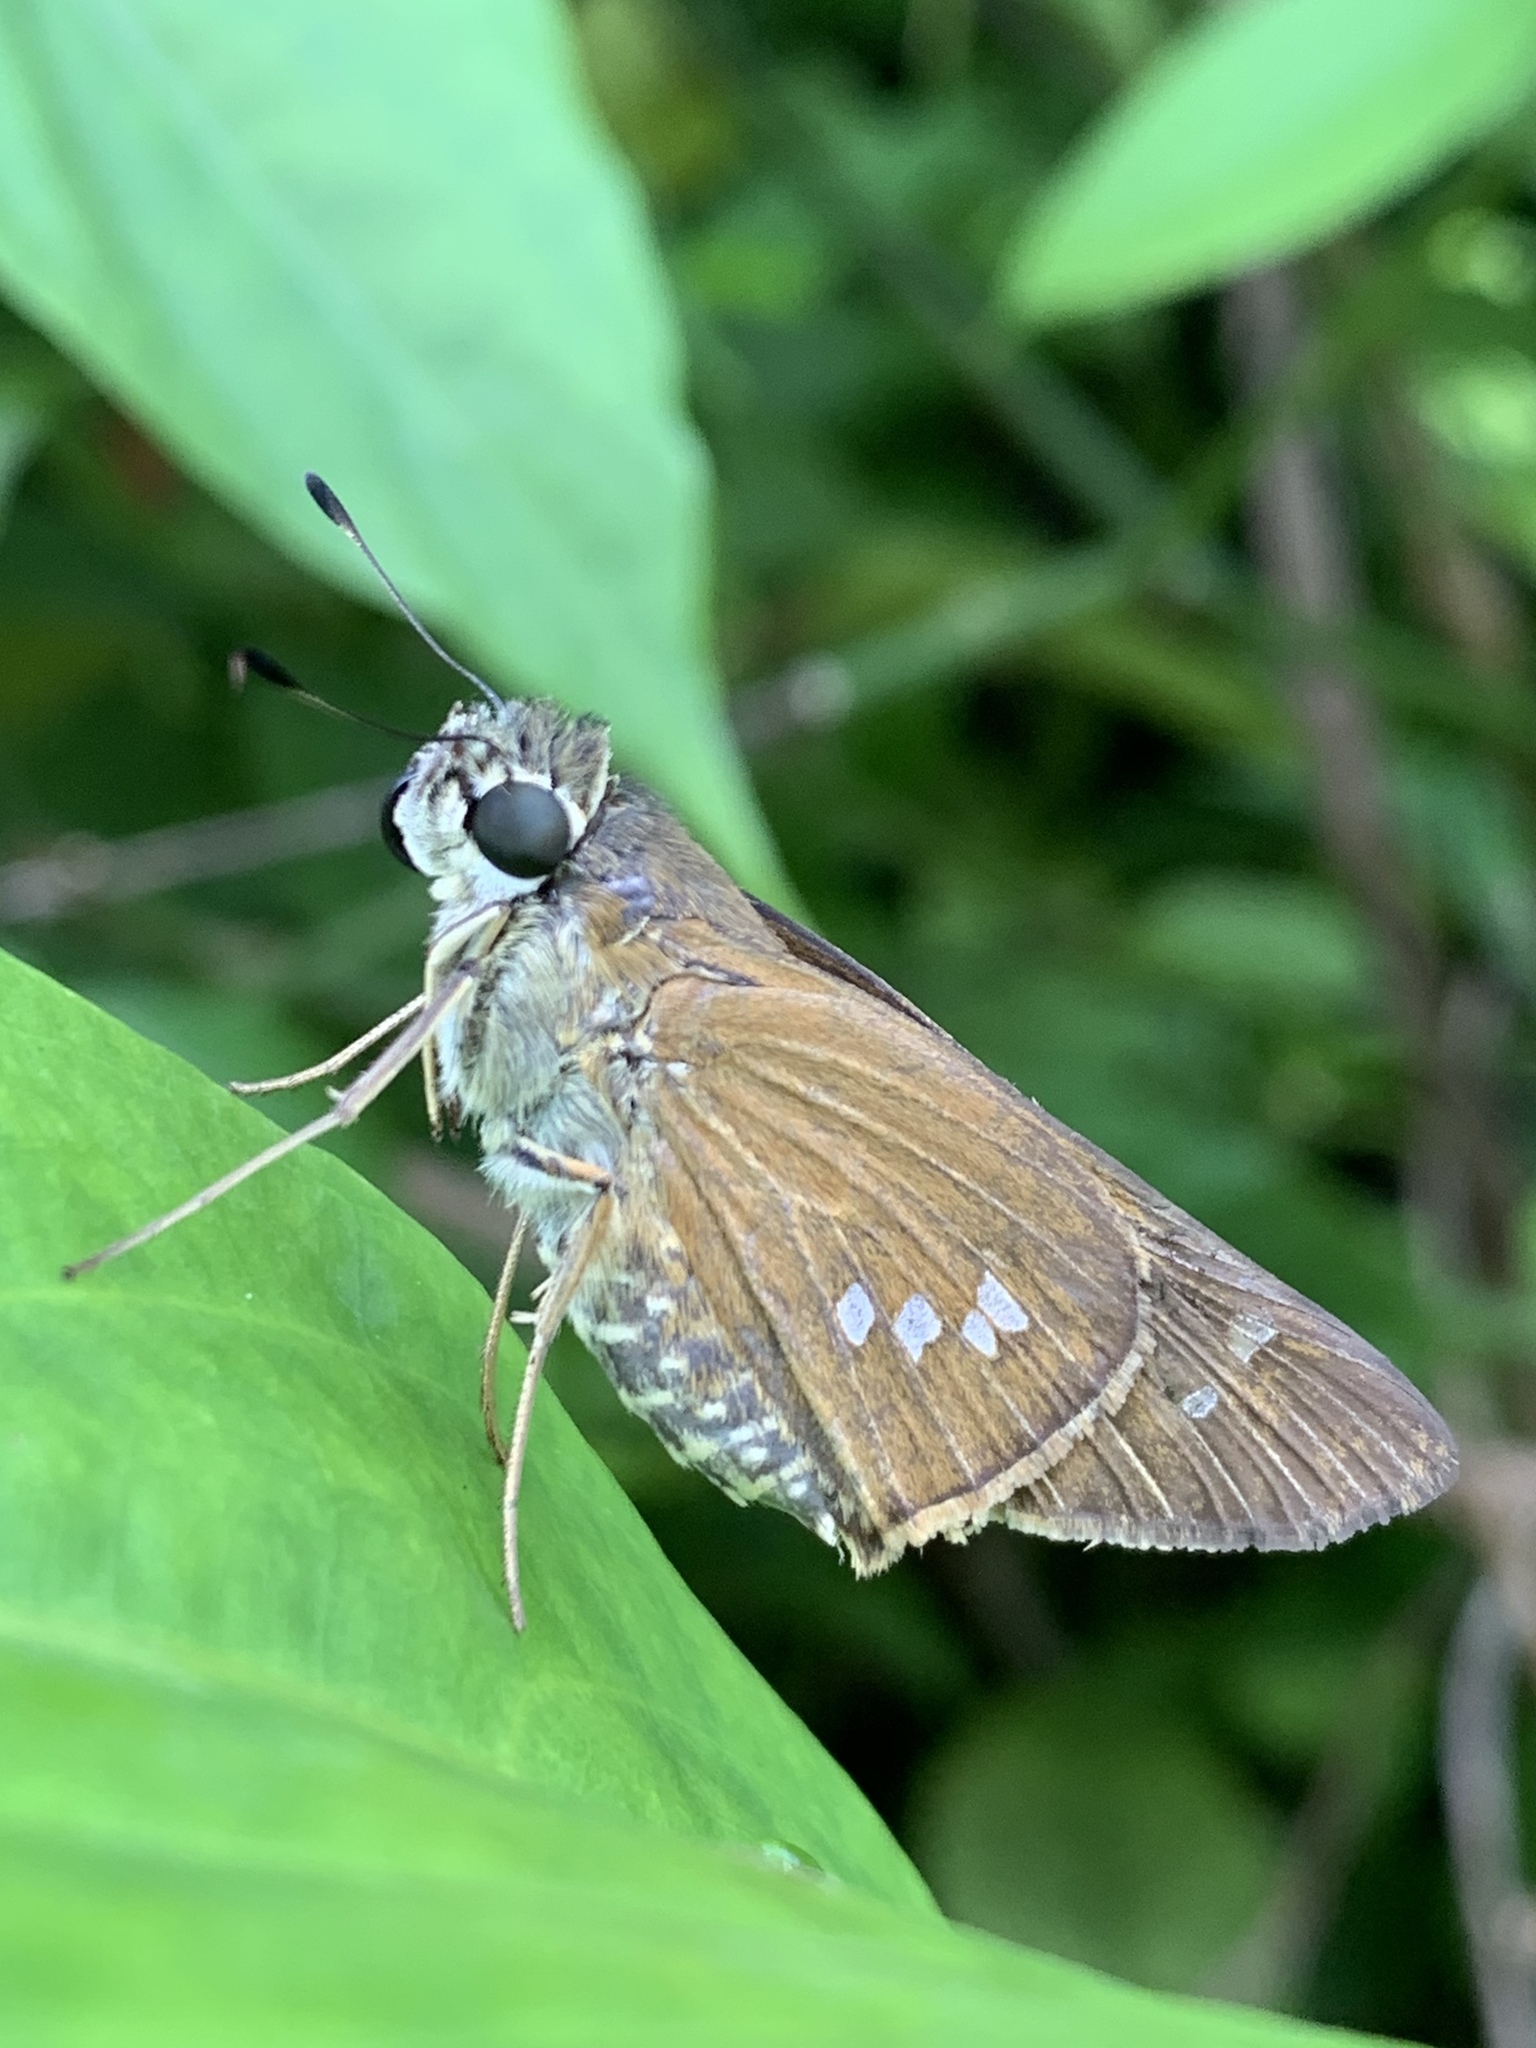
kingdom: Animalia
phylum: Arthropoda
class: Insecta
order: Lepidoptera
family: Hesperiidae
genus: Calpodes
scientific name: Calpodes ethlius
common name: Brazilian skipper
